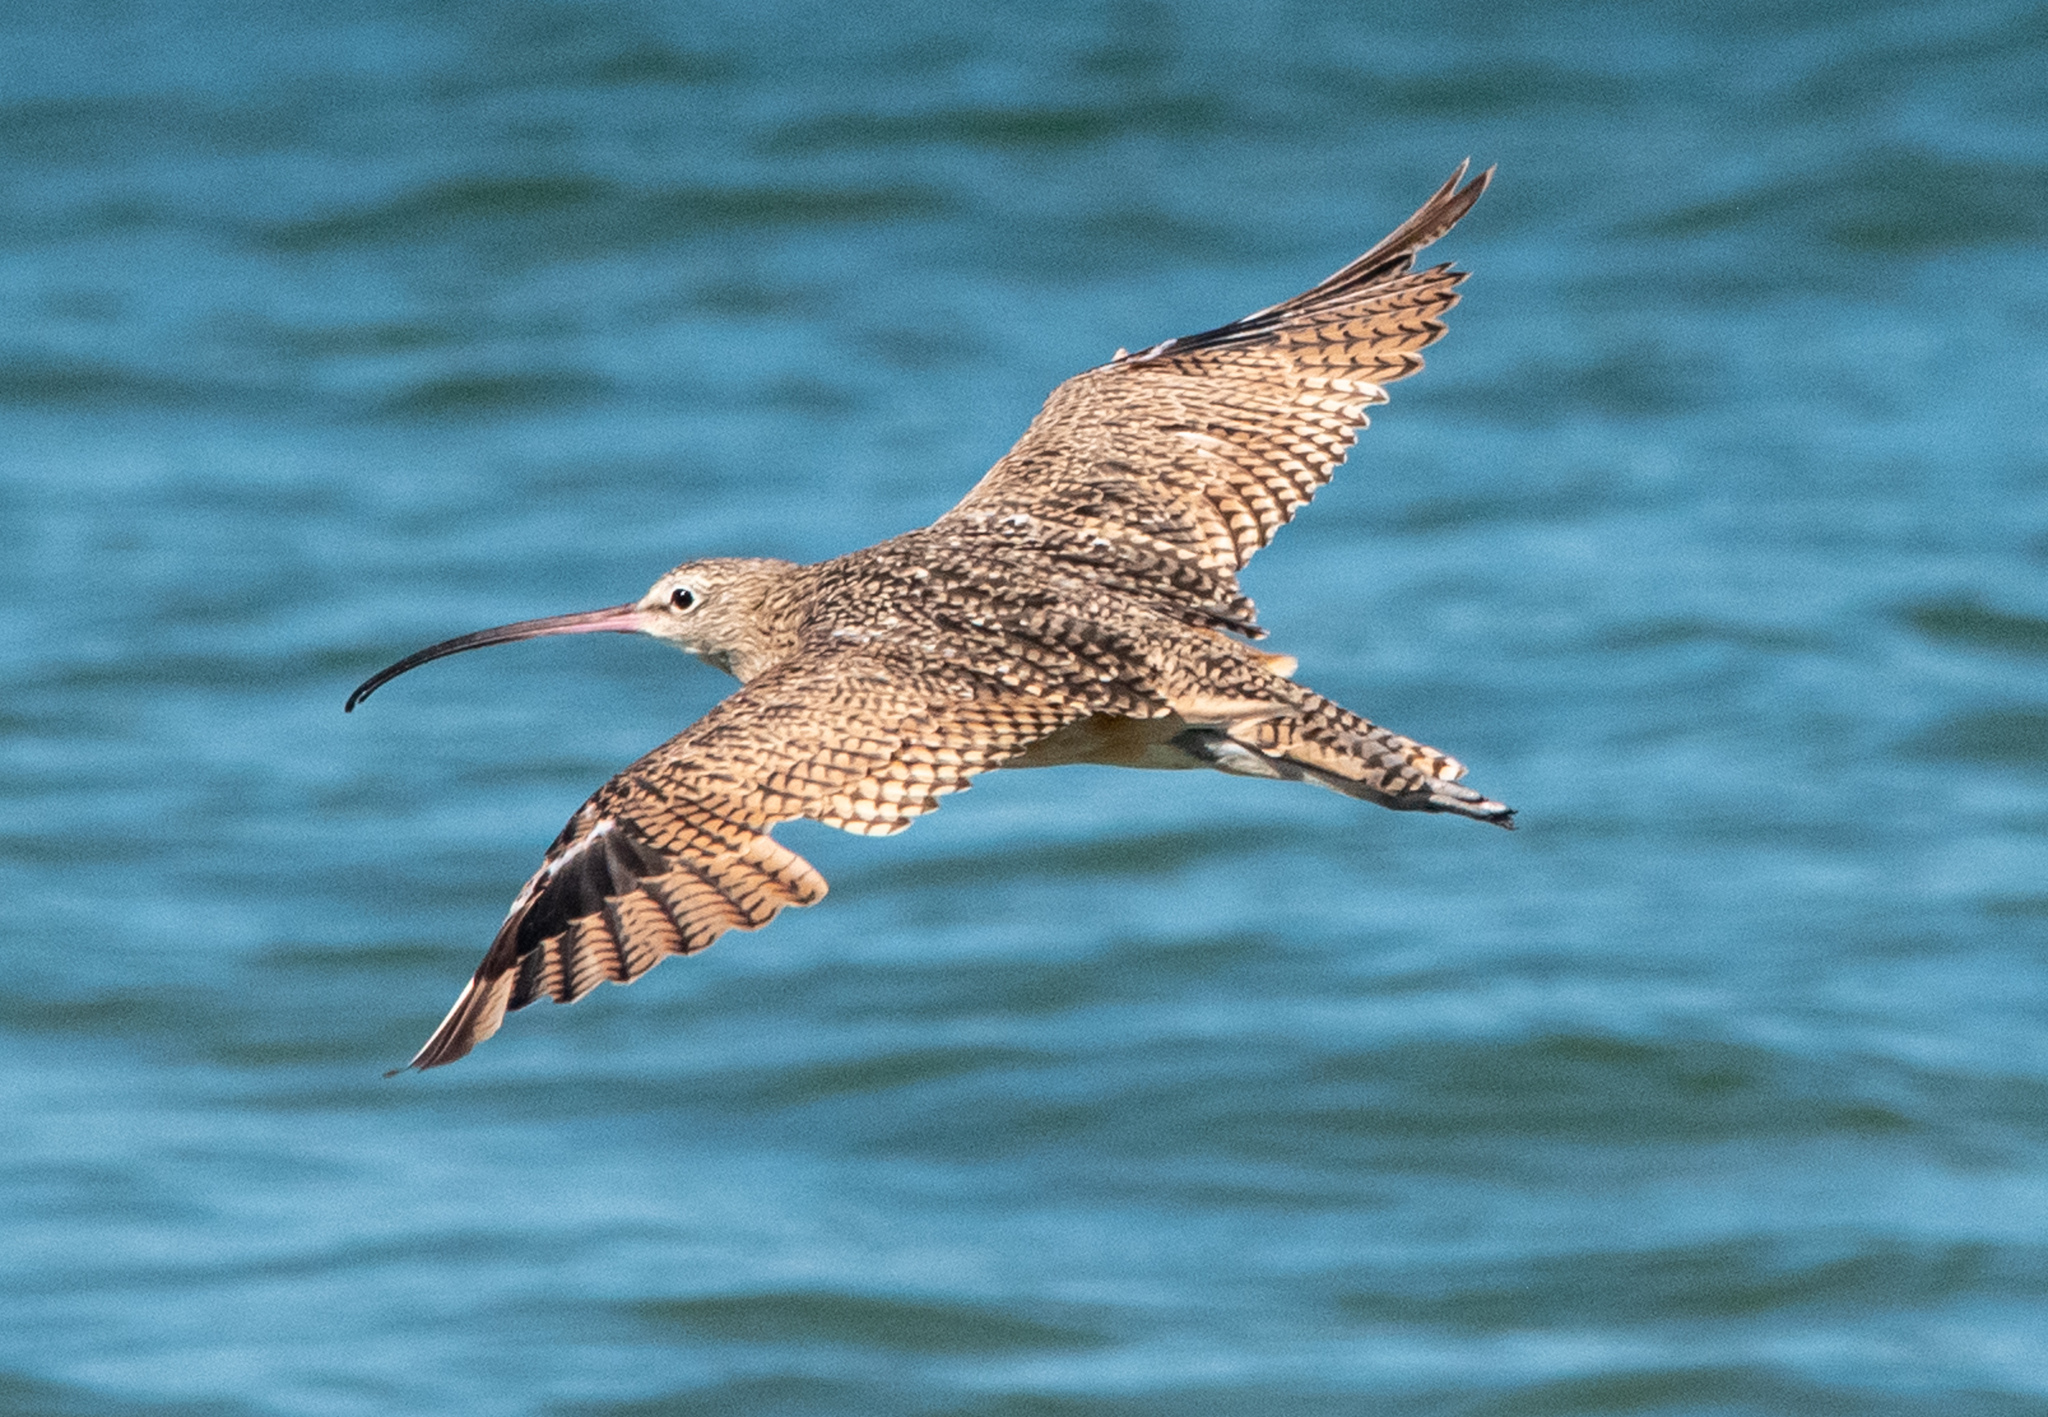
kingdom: Animalia
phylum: Chordata
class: Aves
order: Charadriiformes
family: Scolopacidae
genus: Numenius
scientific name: Numenius americanus
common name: Long-billed curlew
